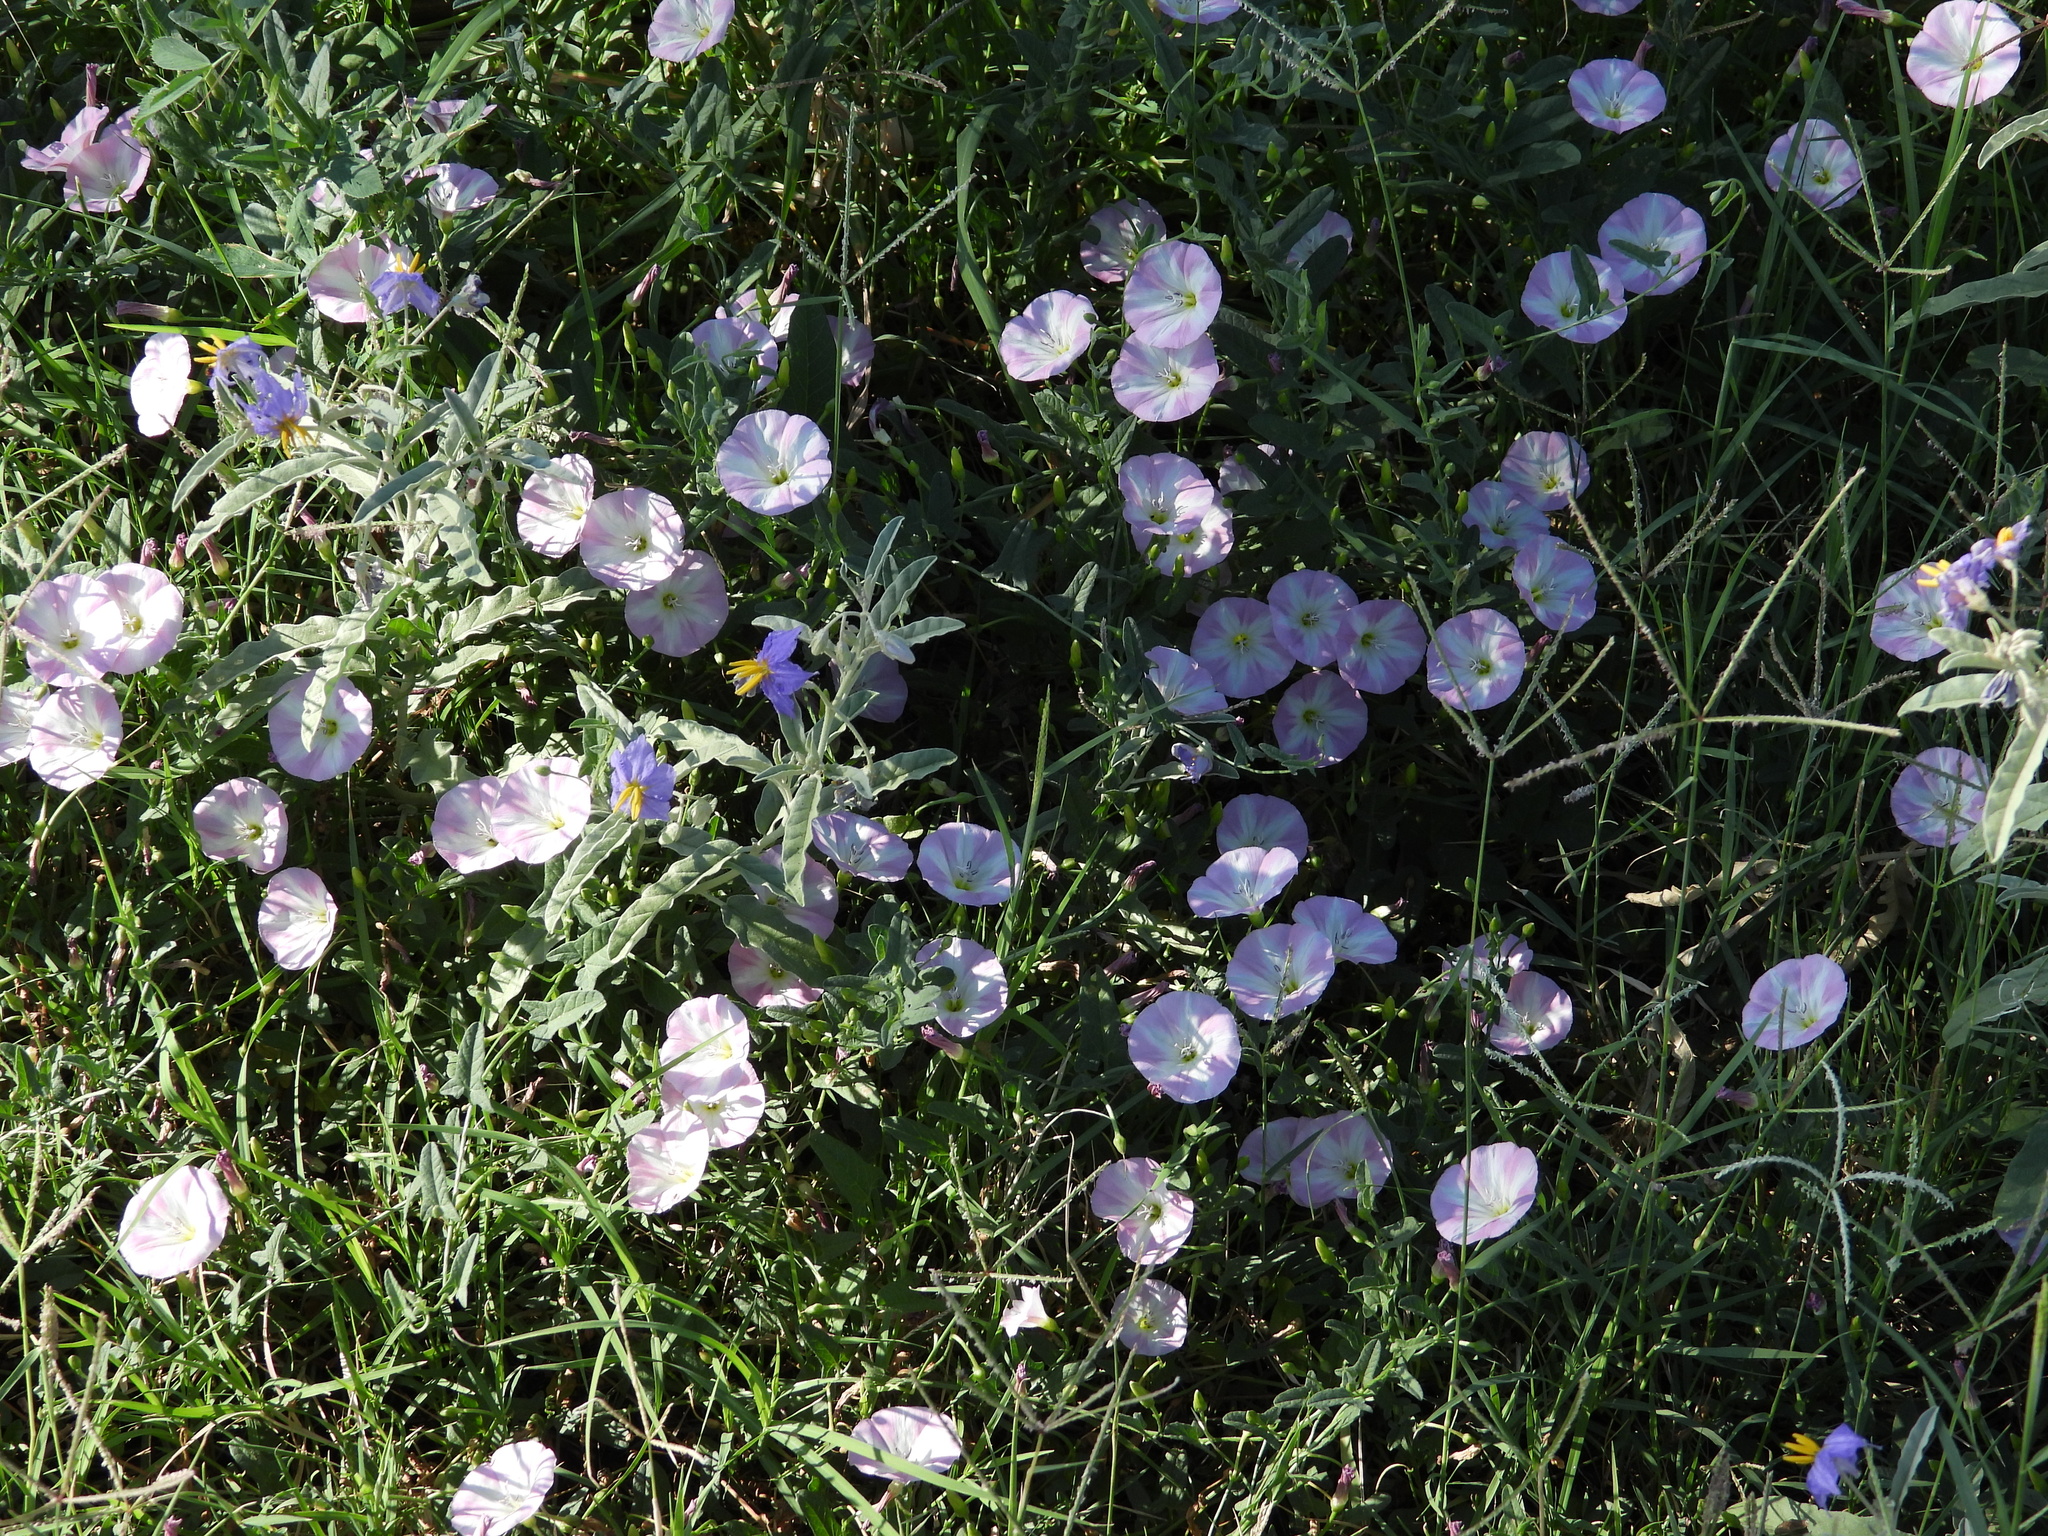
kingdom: Plantae
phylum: Tracheophyta
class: Magnoliopsida
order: Solanales
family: Convolvulaceae
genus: Convolvulus
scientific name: Convolvulus arvensis
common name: Field bindweed
